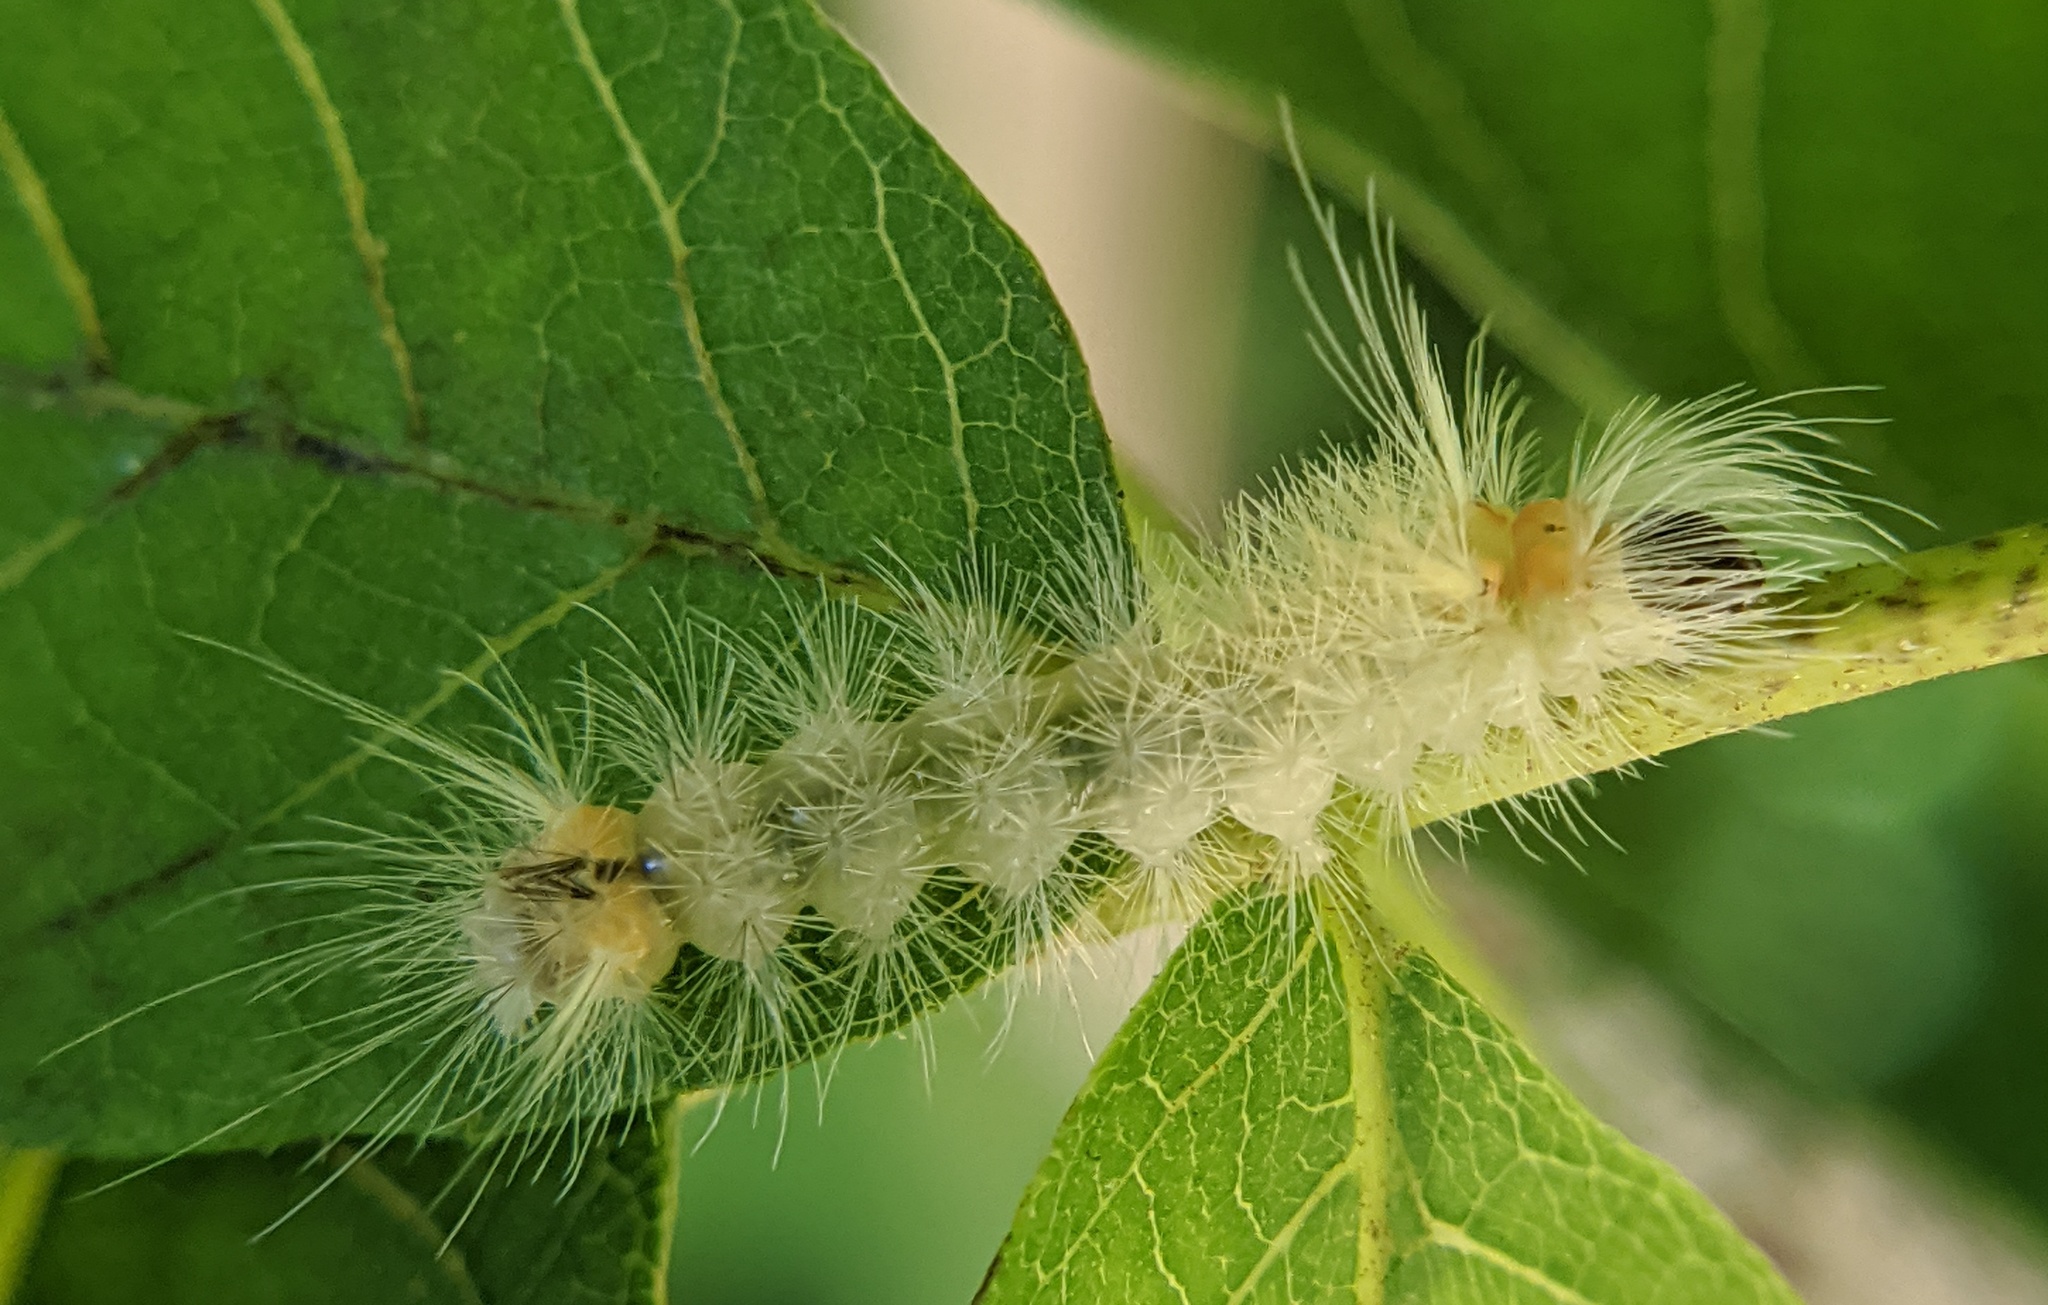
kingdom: Animalia
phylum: Arthropoda
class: Insecta
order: Lepidoptera
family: Erebidae
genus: Halysidota
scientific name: Halysidota tessellaris
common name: Banded tussock moth
